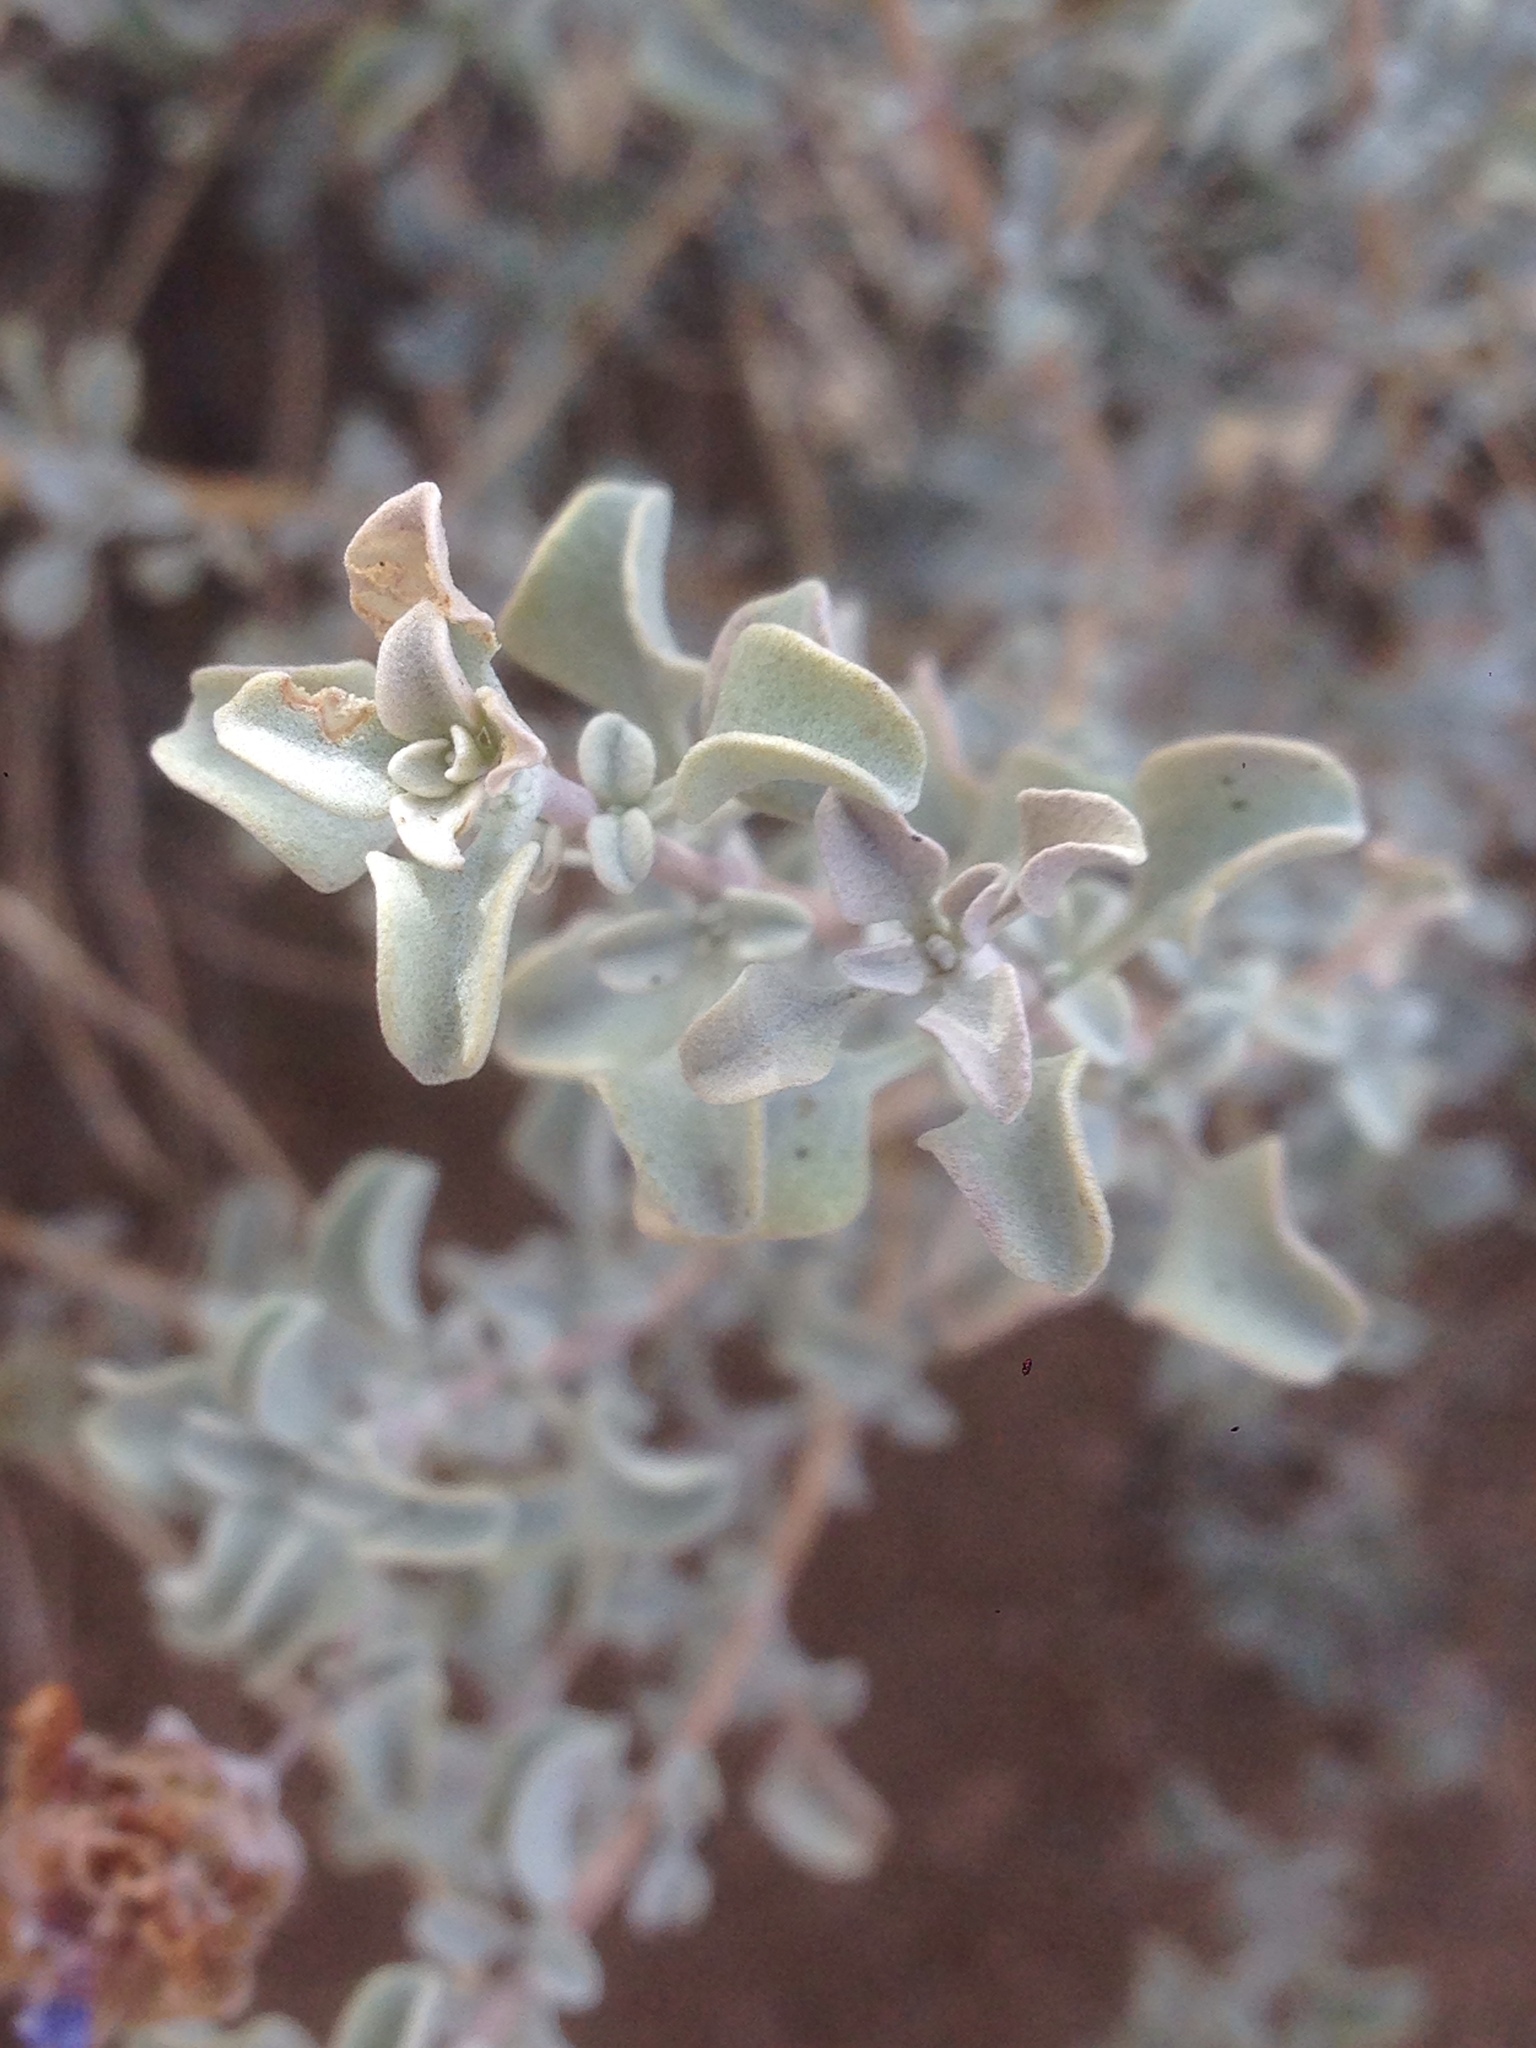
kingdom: Plantae
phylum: Tracheophyta
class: Magnoliopsida
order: Lamiales
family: Lamiaceae
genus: Salvia
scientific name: Salvia dorrii
